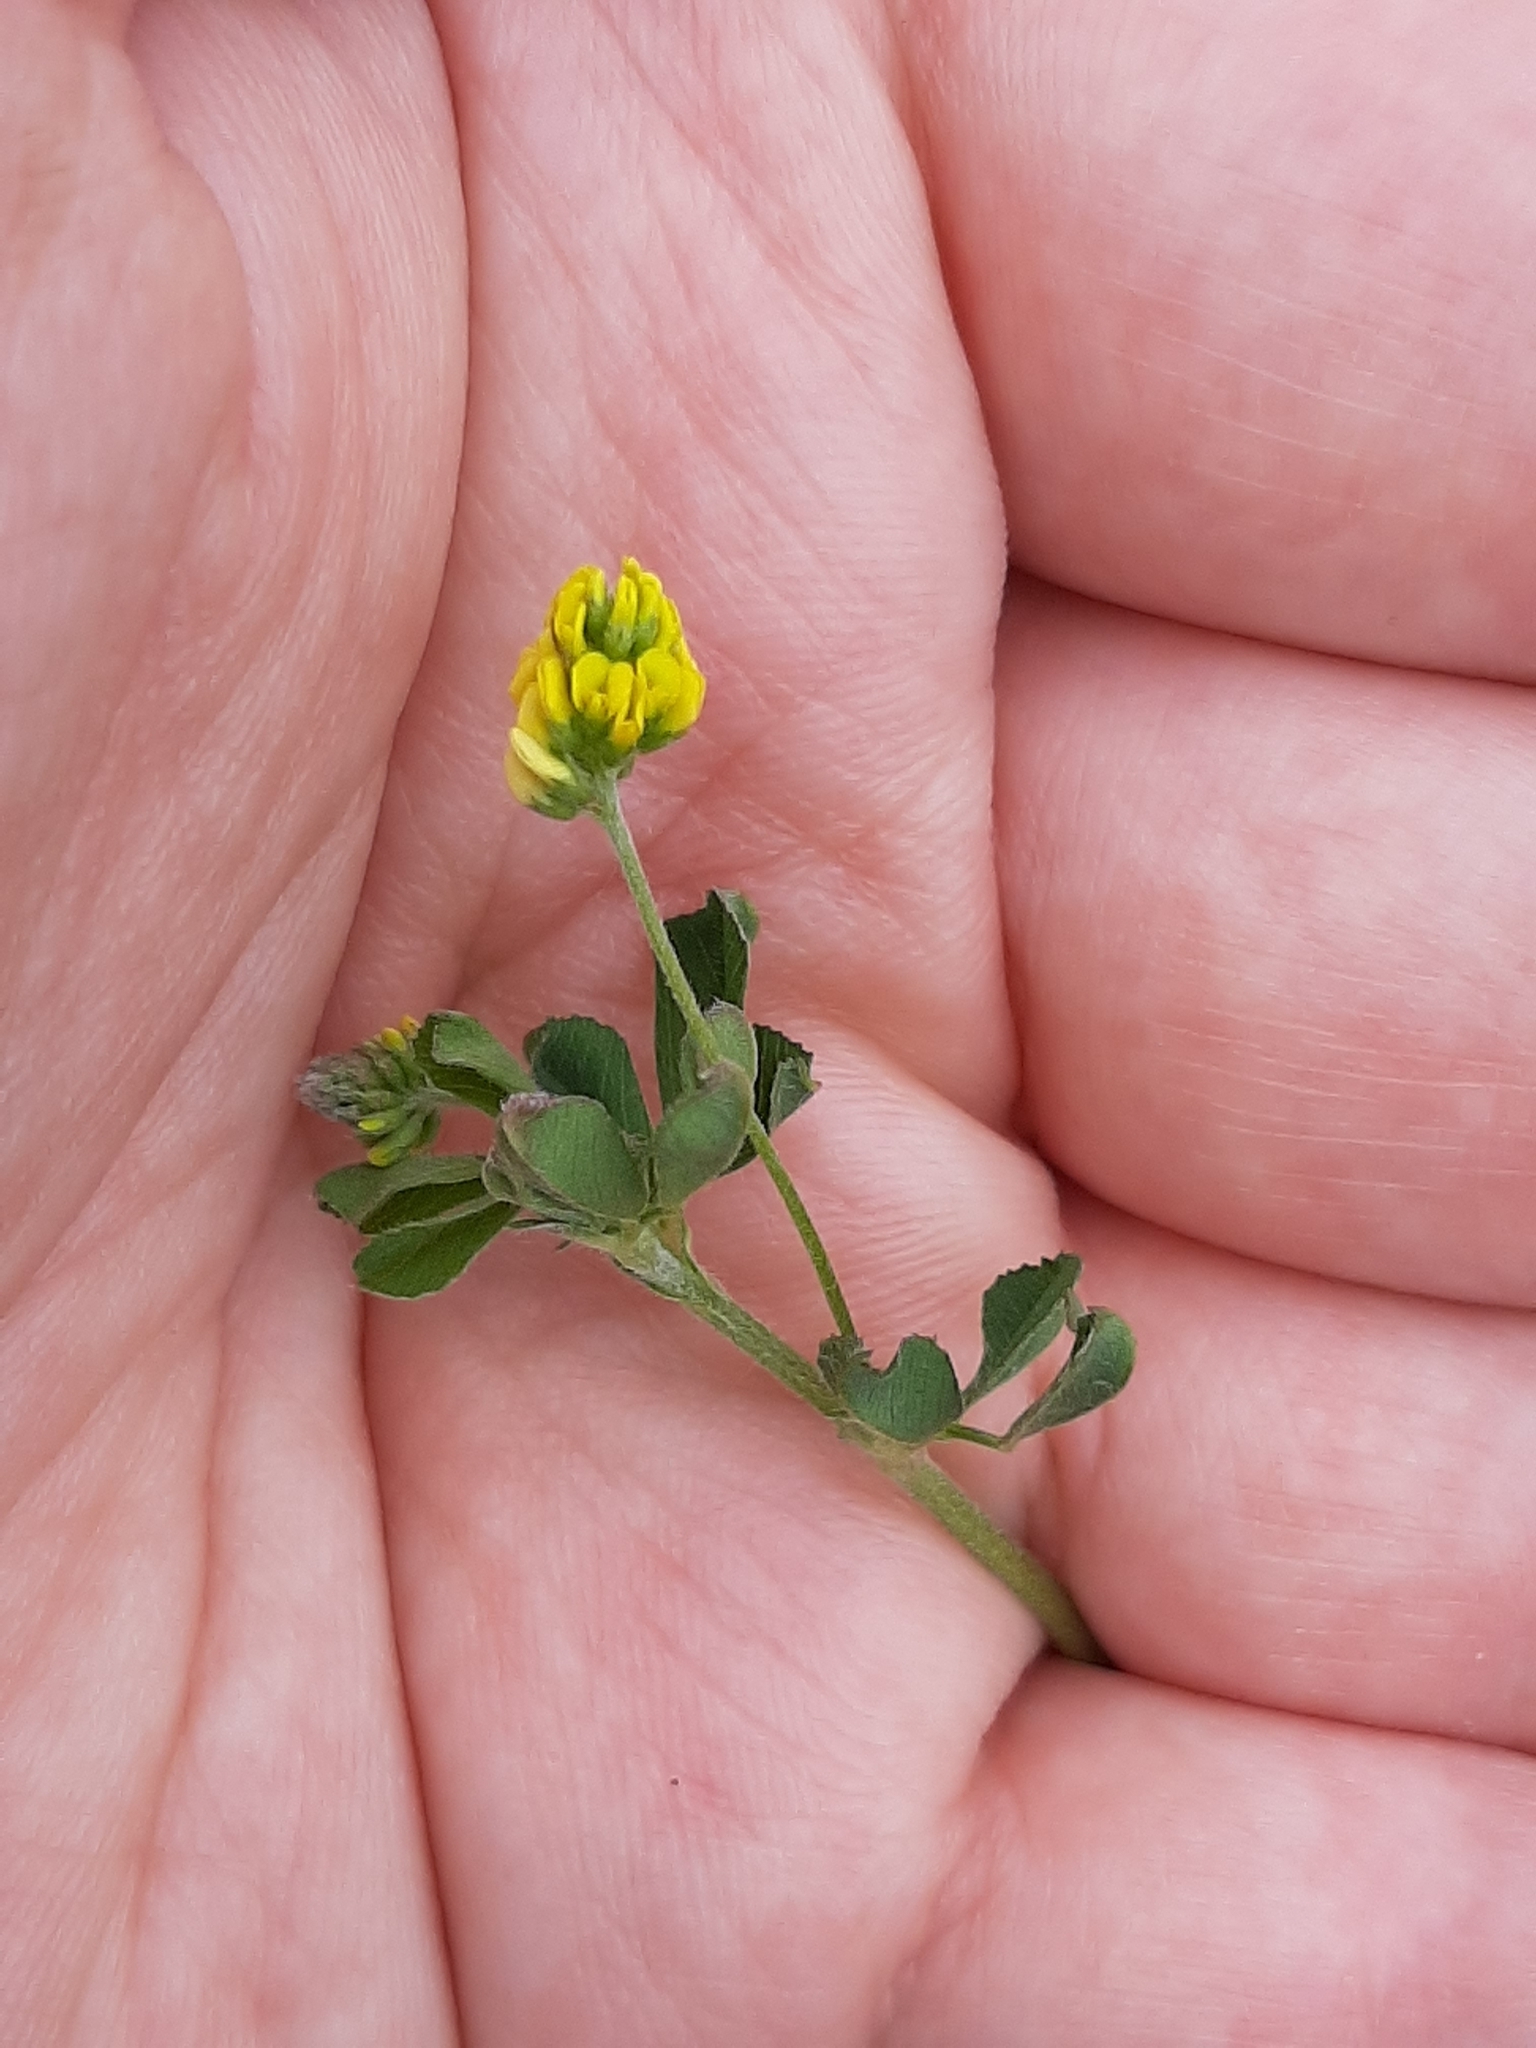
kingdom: Plantae
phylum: Tracheophyta
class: Magnoliopsida
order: Fabales
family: Fabaceae
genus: Medicago
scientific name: Medicago lupulina
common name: Black medick
